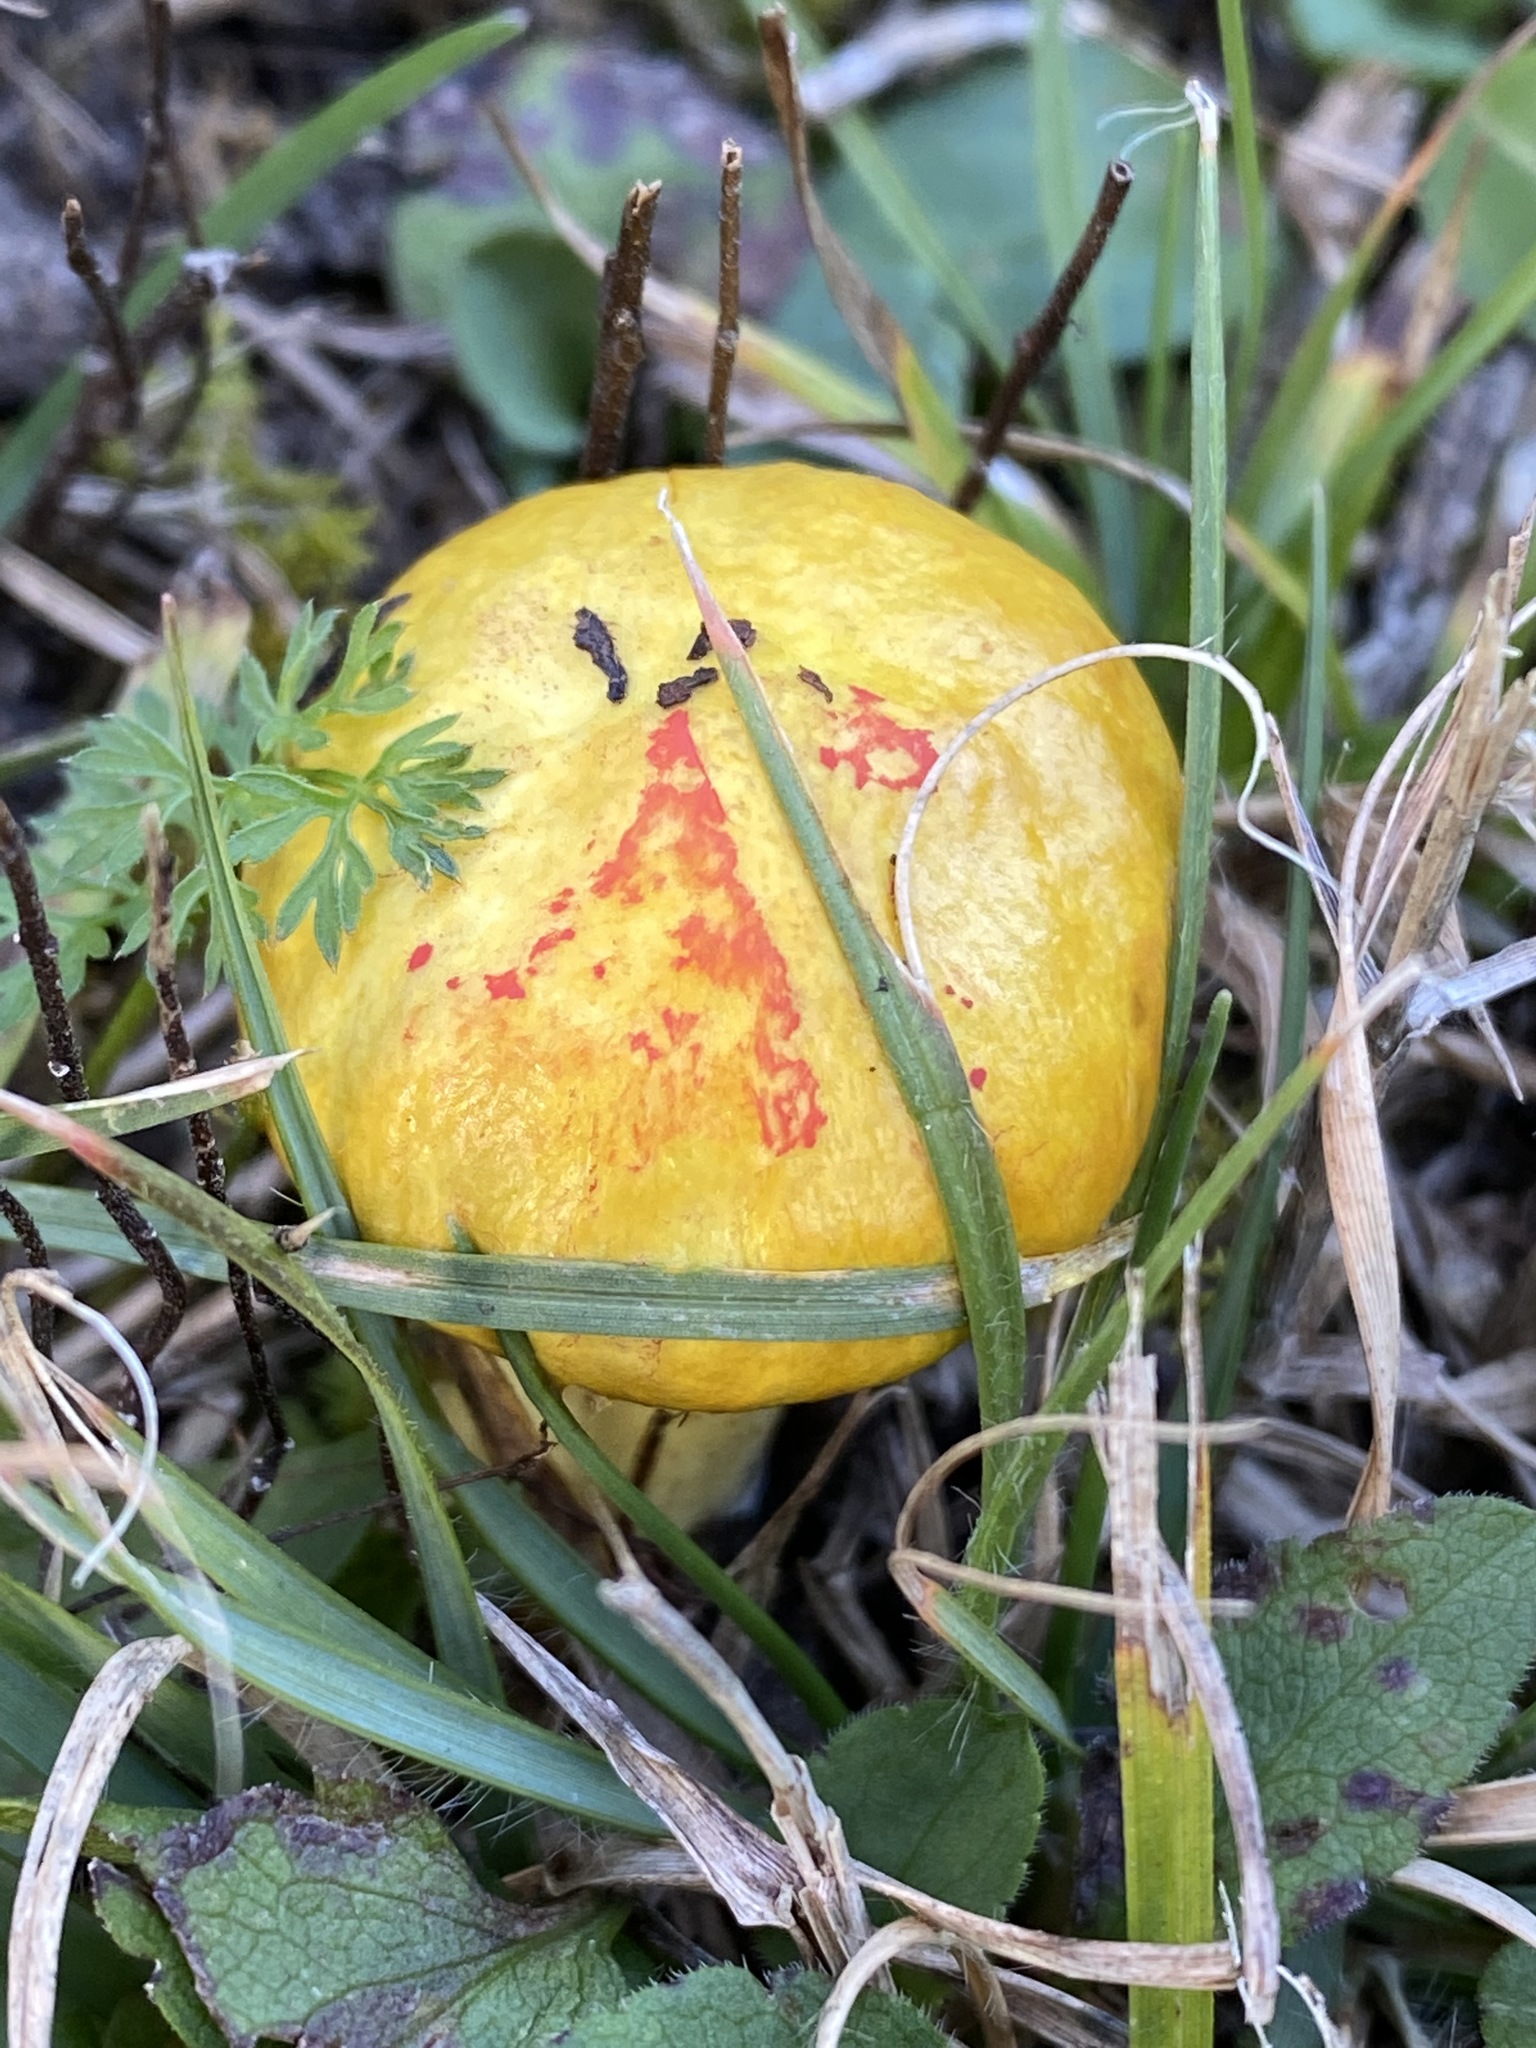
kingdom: Fungi
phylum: Basidiomycota
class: Agaricomycetes
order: Boletales
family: Suillaceae
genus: Suillus
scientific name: Suillus americanus
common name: Chicken fat mushroom
